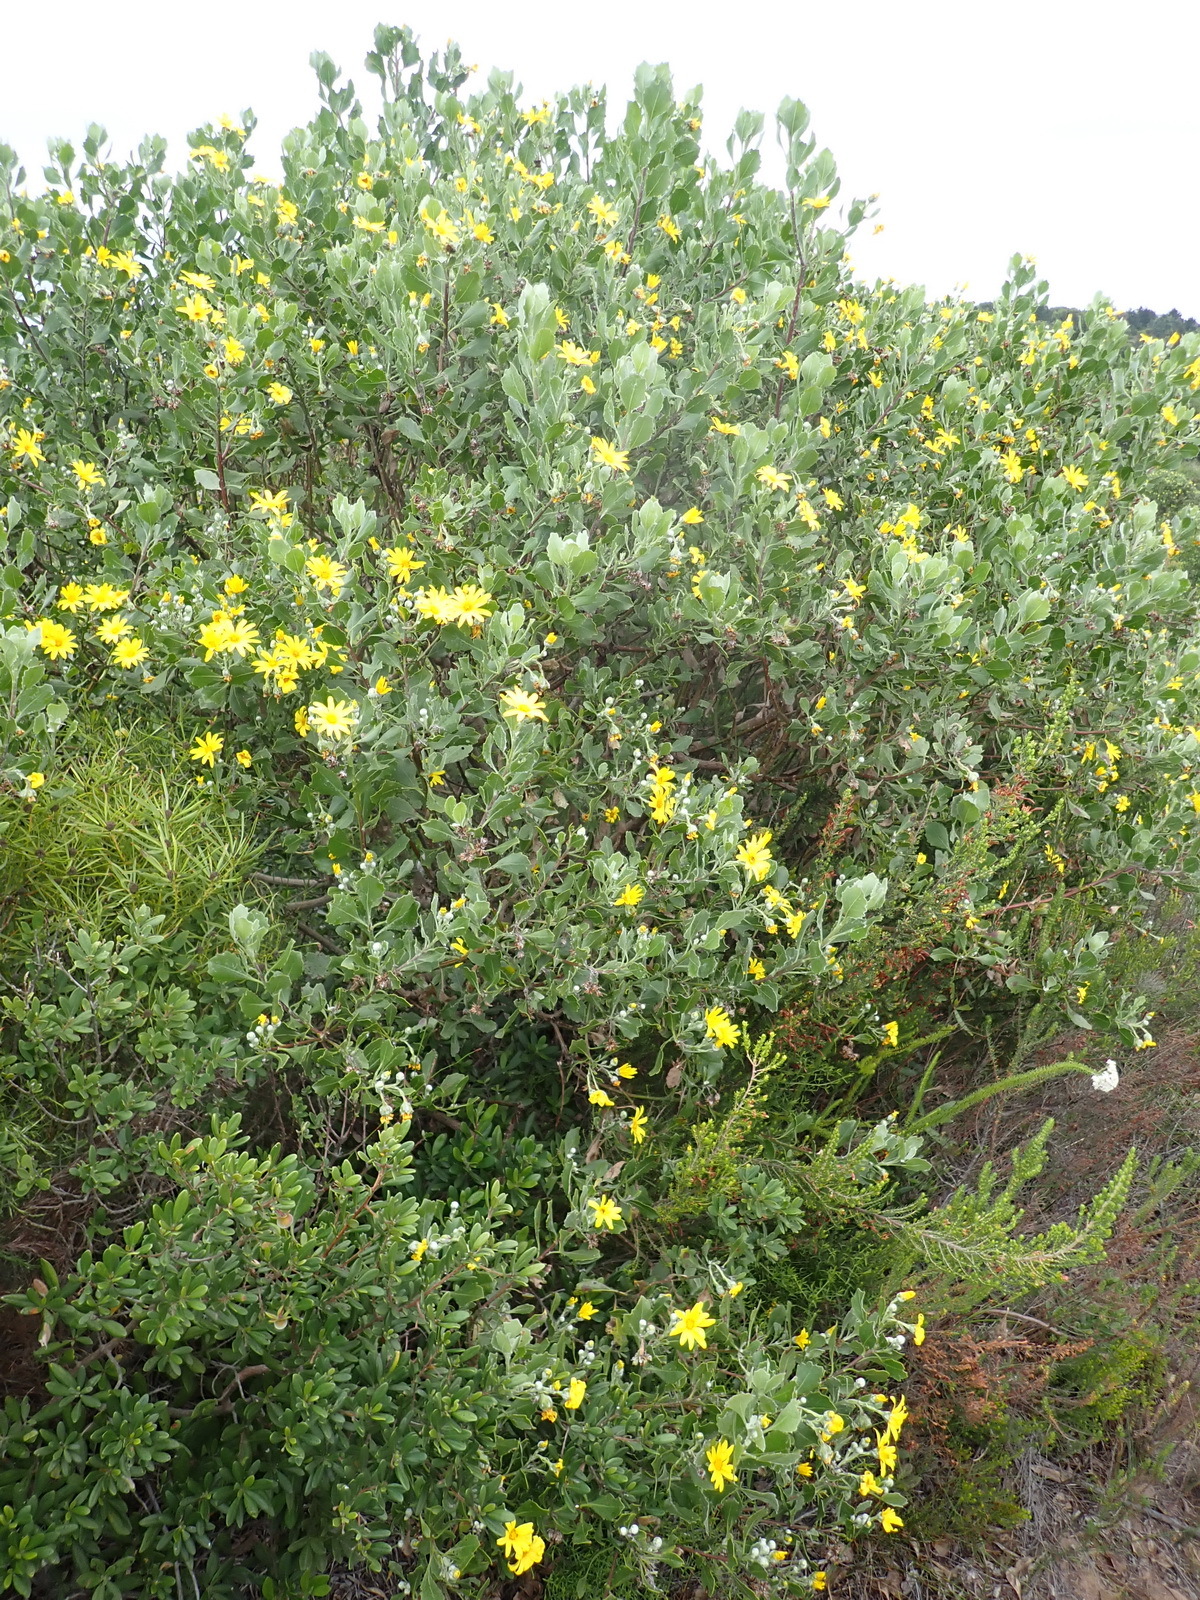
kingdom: Plantae
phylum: Tracheophyta
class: Magnoliopsida
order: Asterales
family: Asteraceae
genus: Osteospermum
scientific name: Osteospermum moniliferum
